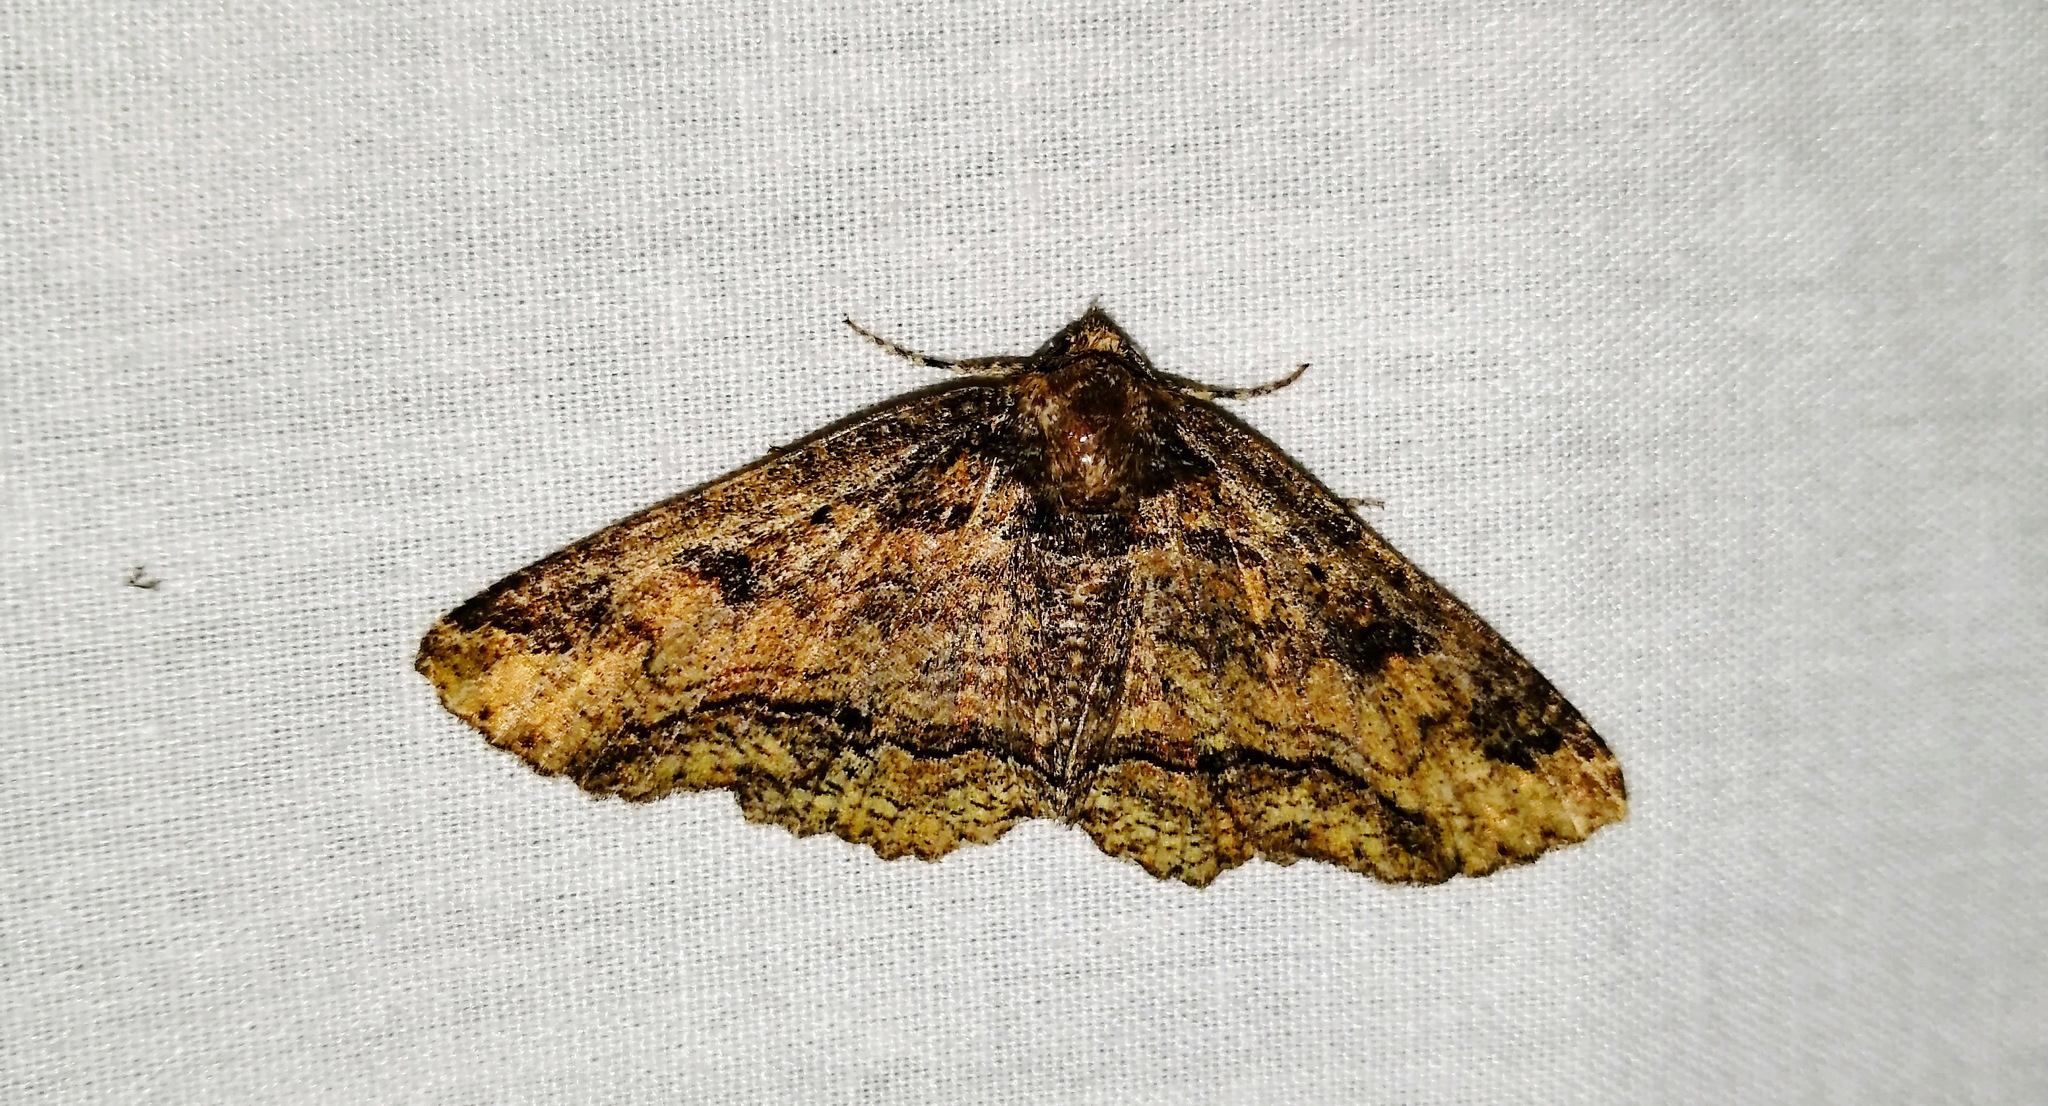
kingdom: Animalia
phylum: Arthropoda
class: Insecta
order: Lepidoptera
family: Erebidae
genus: Zale
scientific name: Zale minerea
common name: Colorful zale moth
